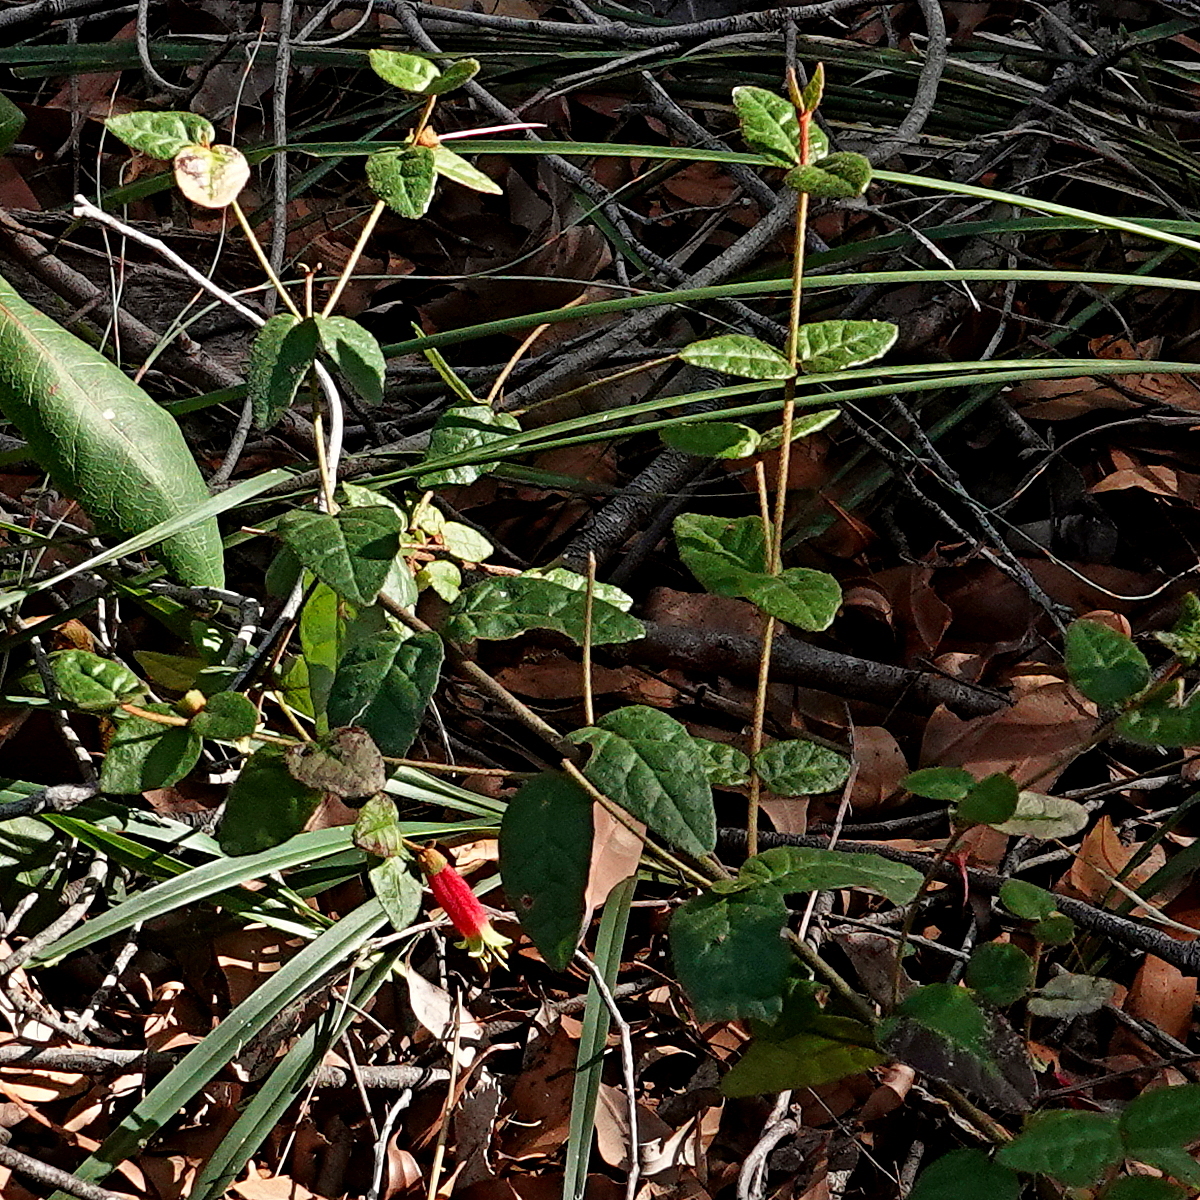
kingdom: Plantae
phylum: Tracheophyta
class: Magnoliopsida
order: Sapindales
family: Rutaceae
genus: Correa
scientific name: Correa reflexa
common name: Common correa
